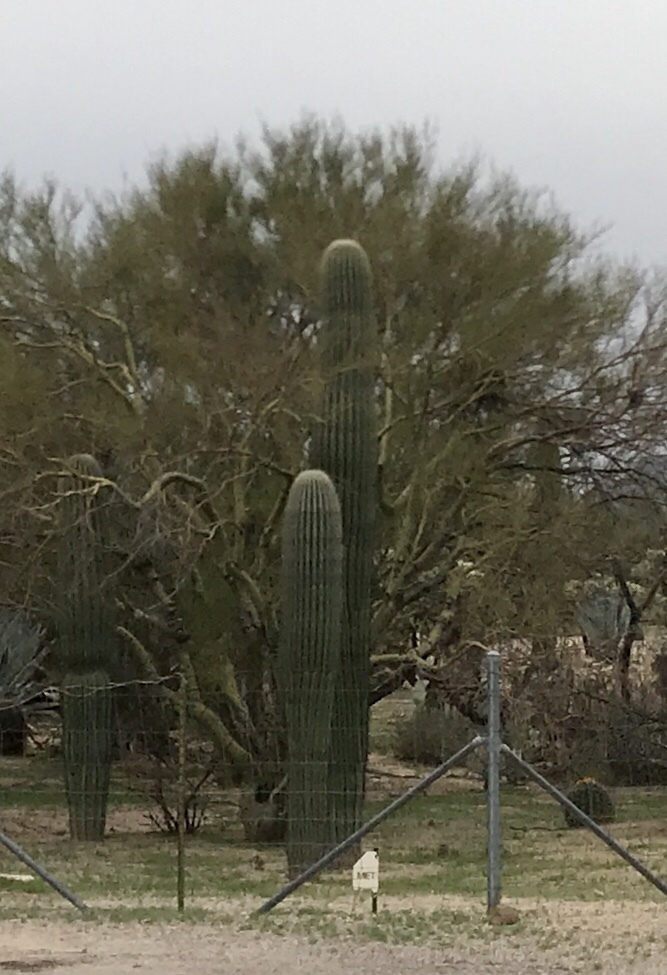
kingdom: Plantae
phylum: Tracheophyta
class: Magnoliopsida
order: Caryophyllales
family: Cactaceae
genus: Carnegiea
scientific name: Carnegiea gigantea
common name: Saguaro
